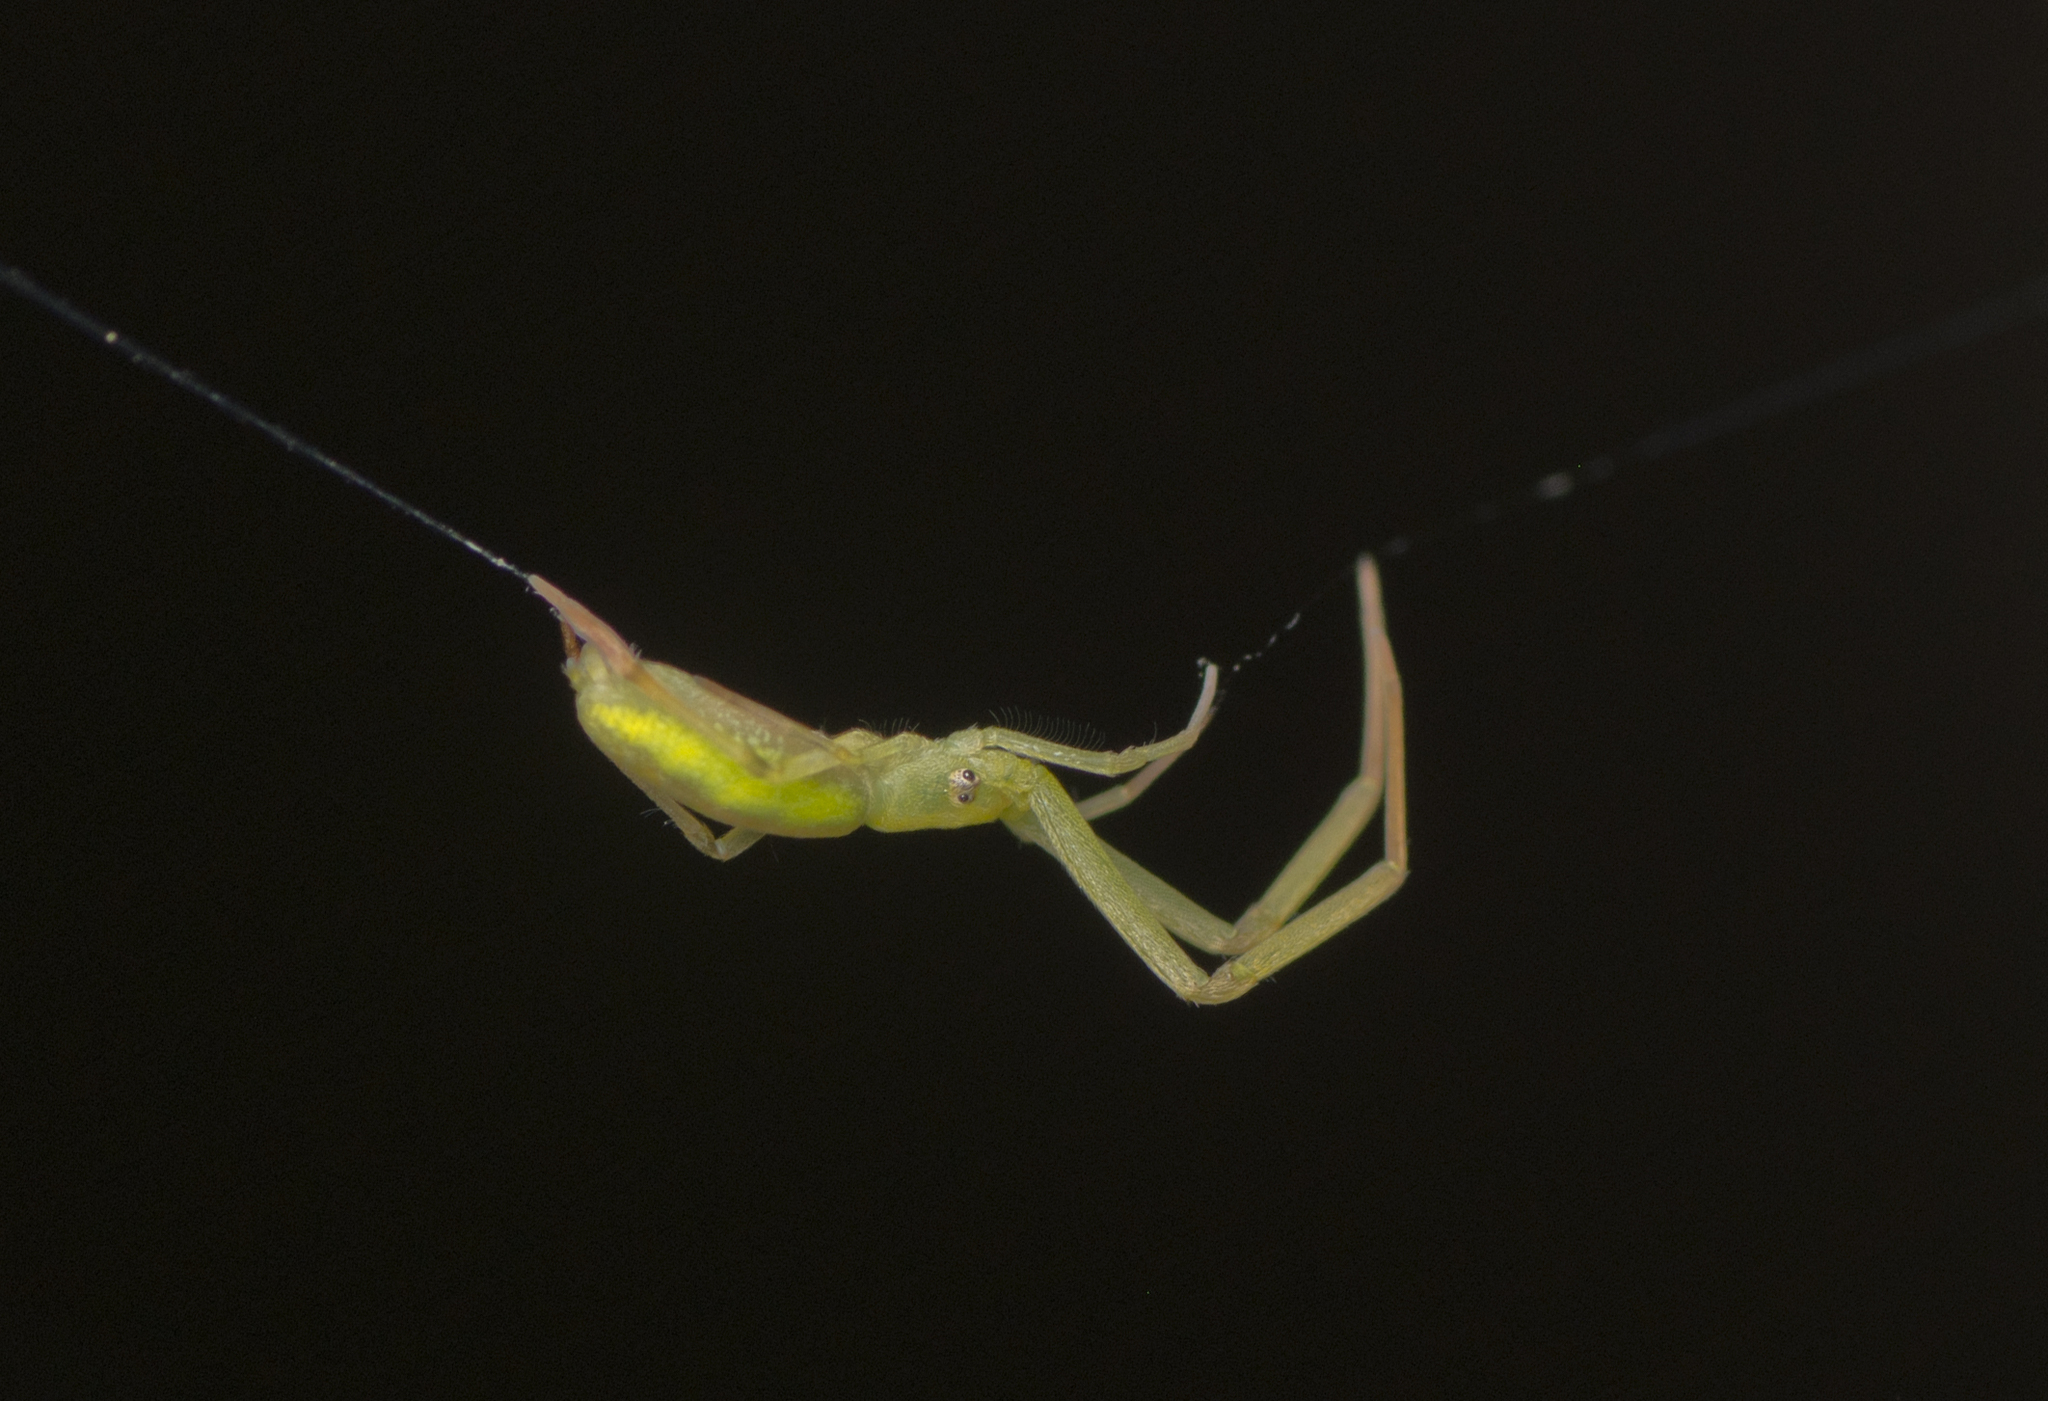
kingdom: Animalia
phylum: Arthropoda
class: Arachnida
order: Araneae
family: Uloboridae
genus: Miagrammopes
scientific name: Miagrammopes flavus
